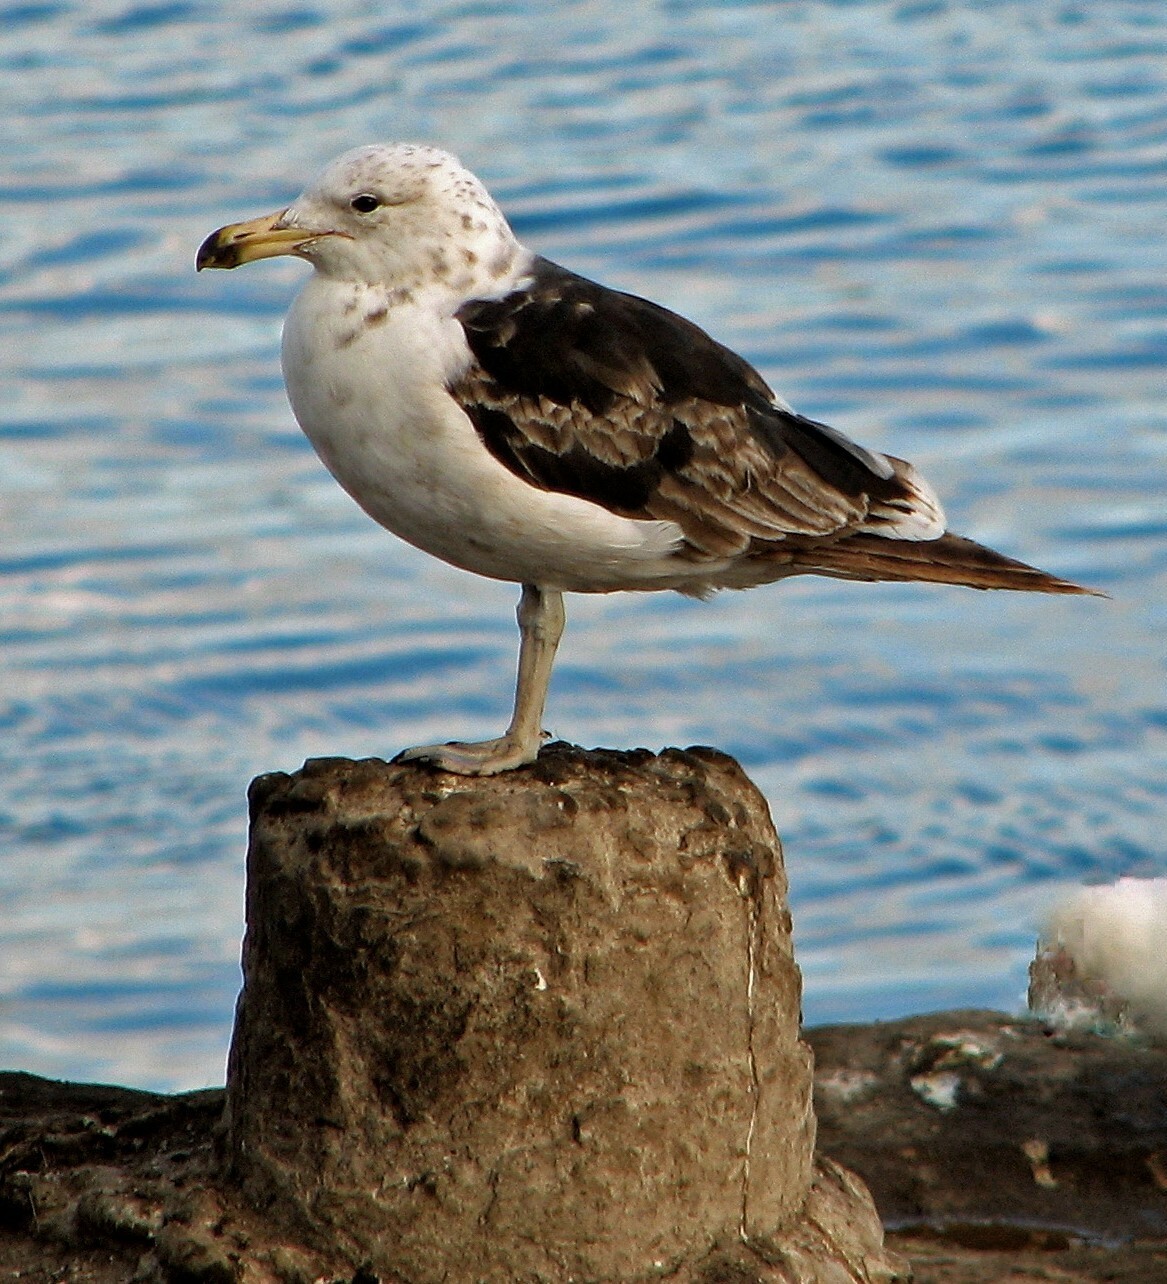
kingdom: Animalia
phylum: Chordata
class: Aves
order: Charadriiformes
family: Laridae
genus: Larus
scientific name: Larus dominicanus
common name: Kelp gull
